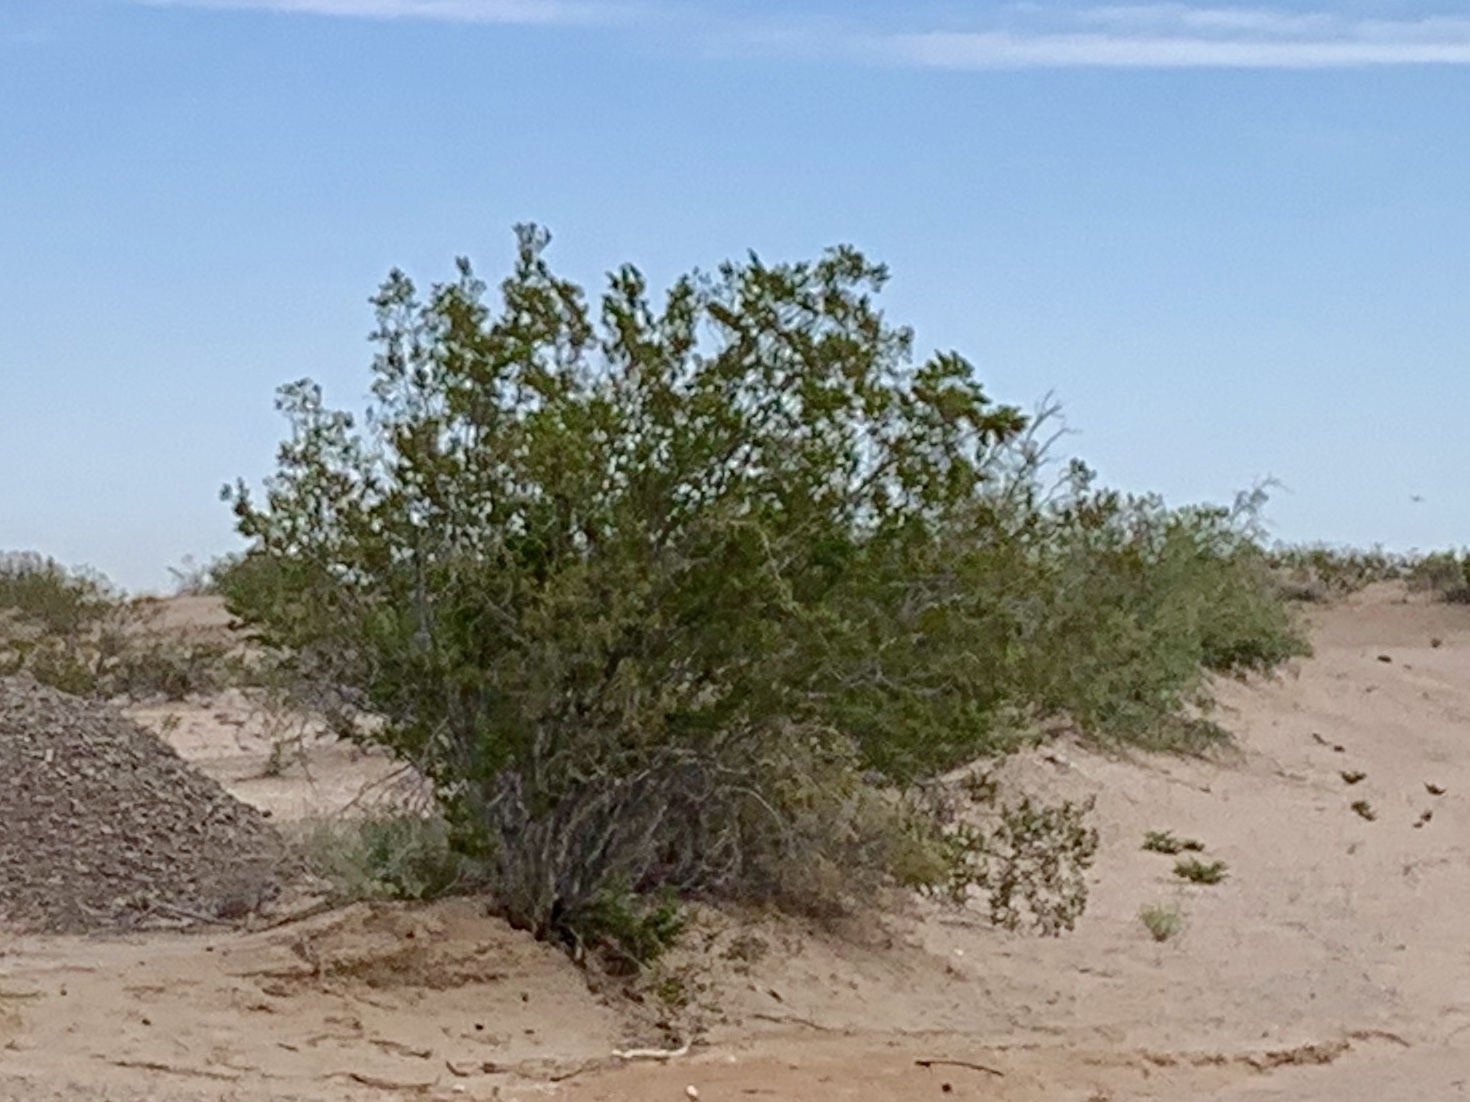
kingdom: Plantae
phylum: Tracheophyta
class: Magnoliopsida
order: Zygophyllales
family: Zygophyllaceae
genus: Larrea
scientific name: Larrea tridentata
